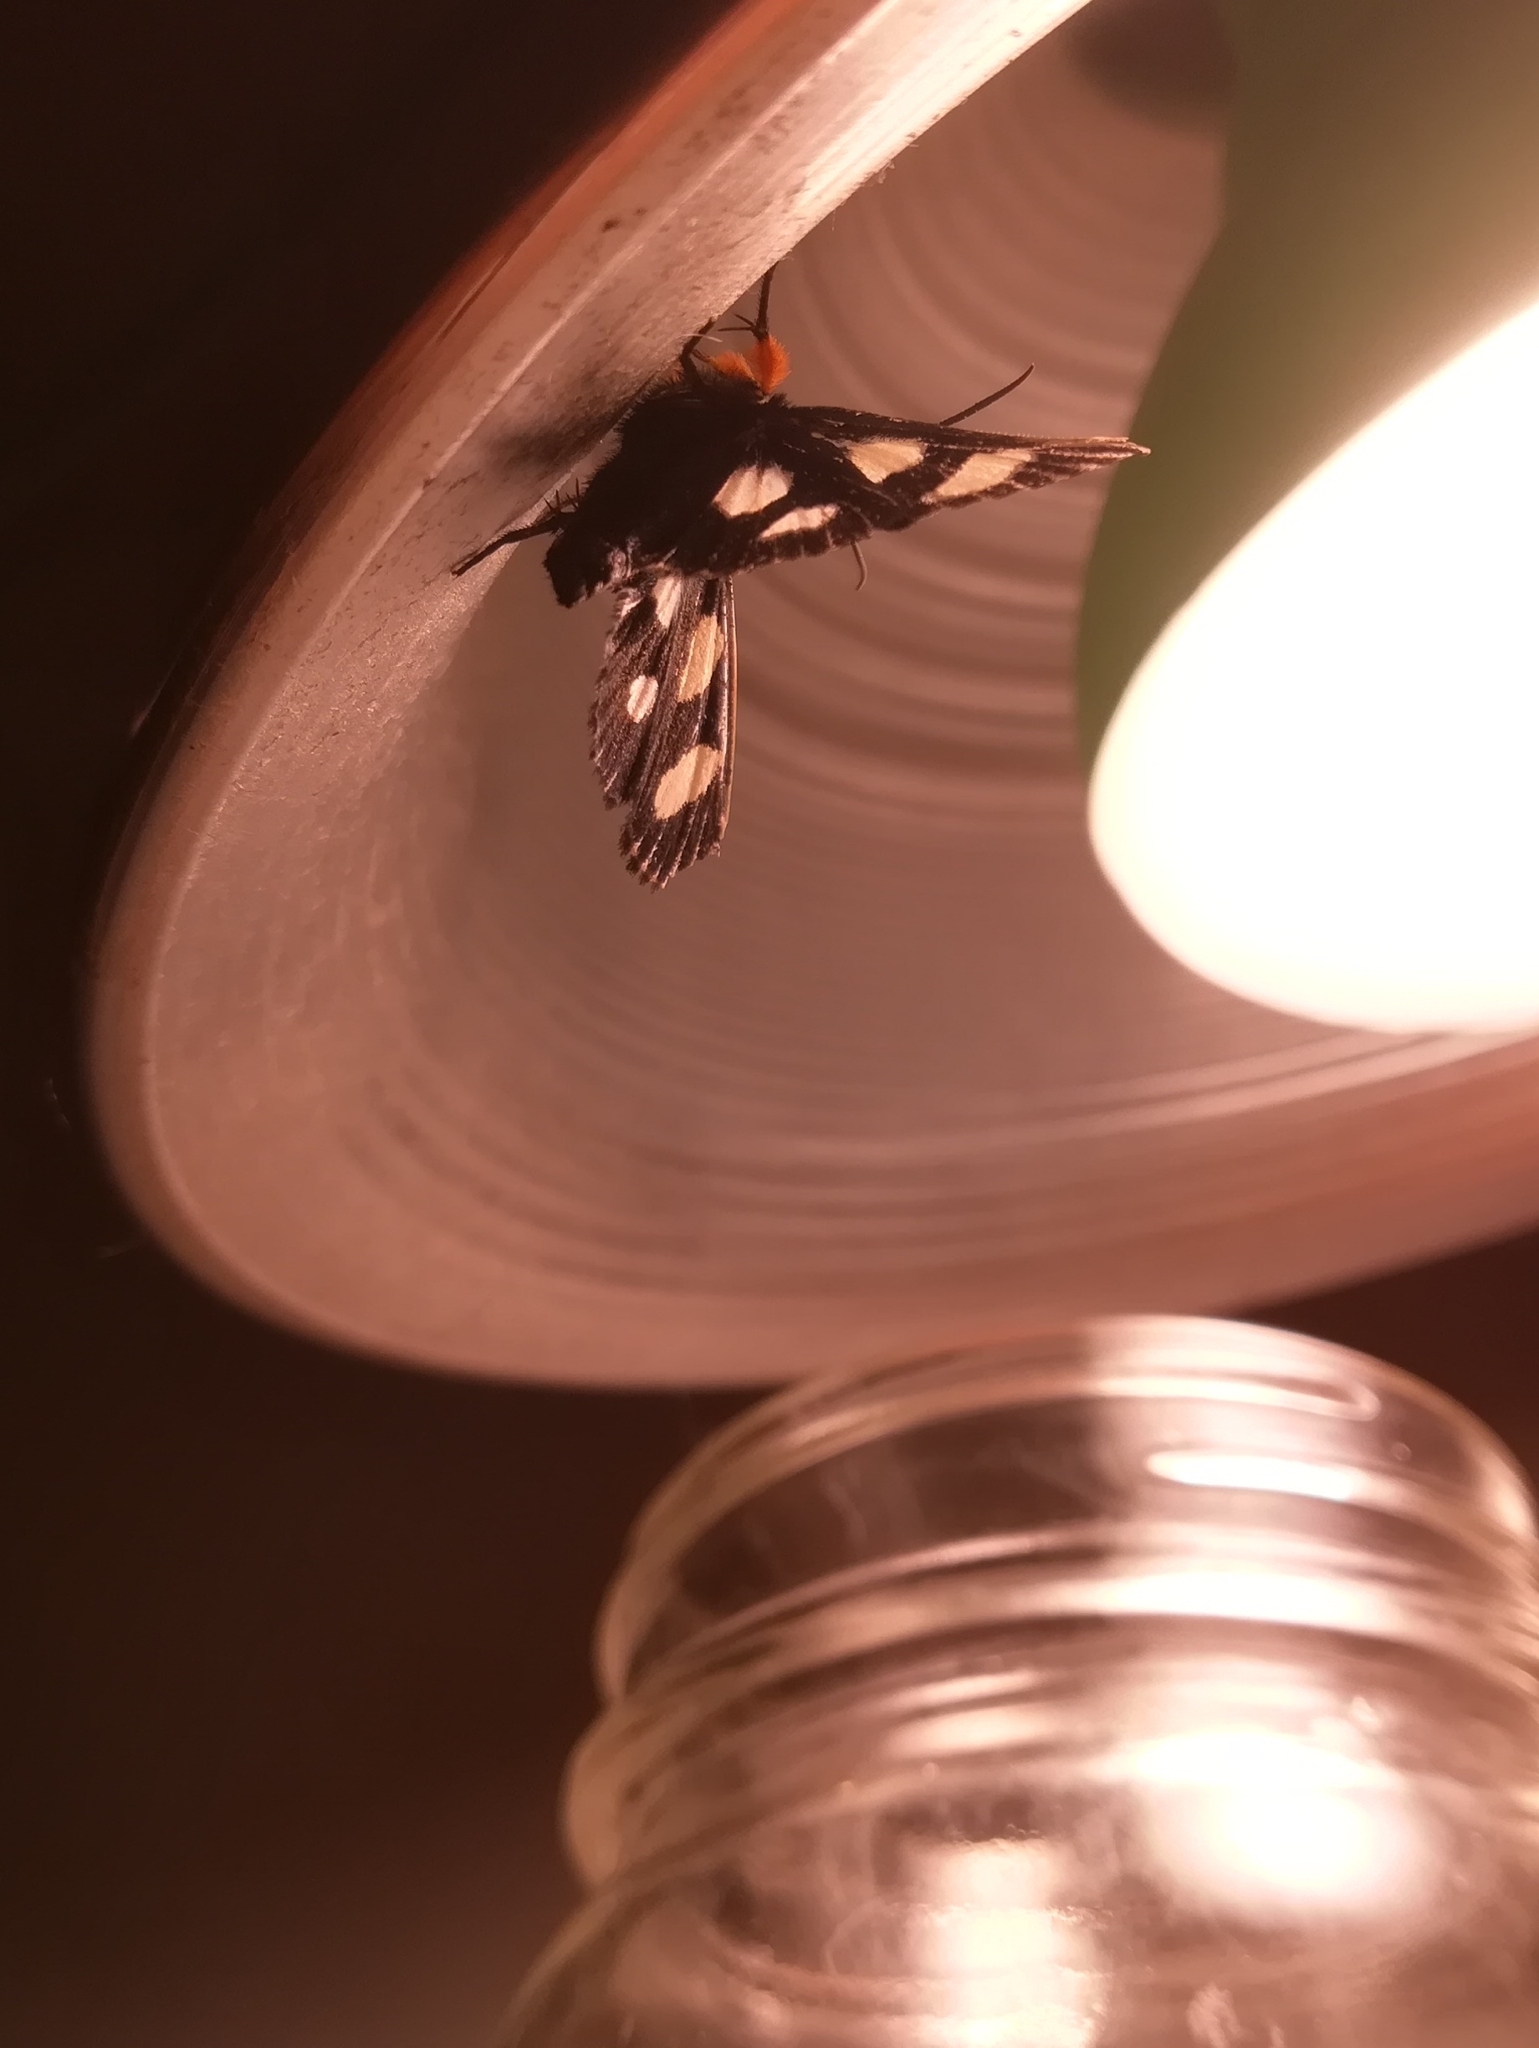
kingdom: Animalia
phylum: Arthropoda
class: Insecta
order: Lepidoptera
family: Noctuidae
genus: Alypia
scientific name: Alypia octomaculata
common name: Eight-spotted forester
